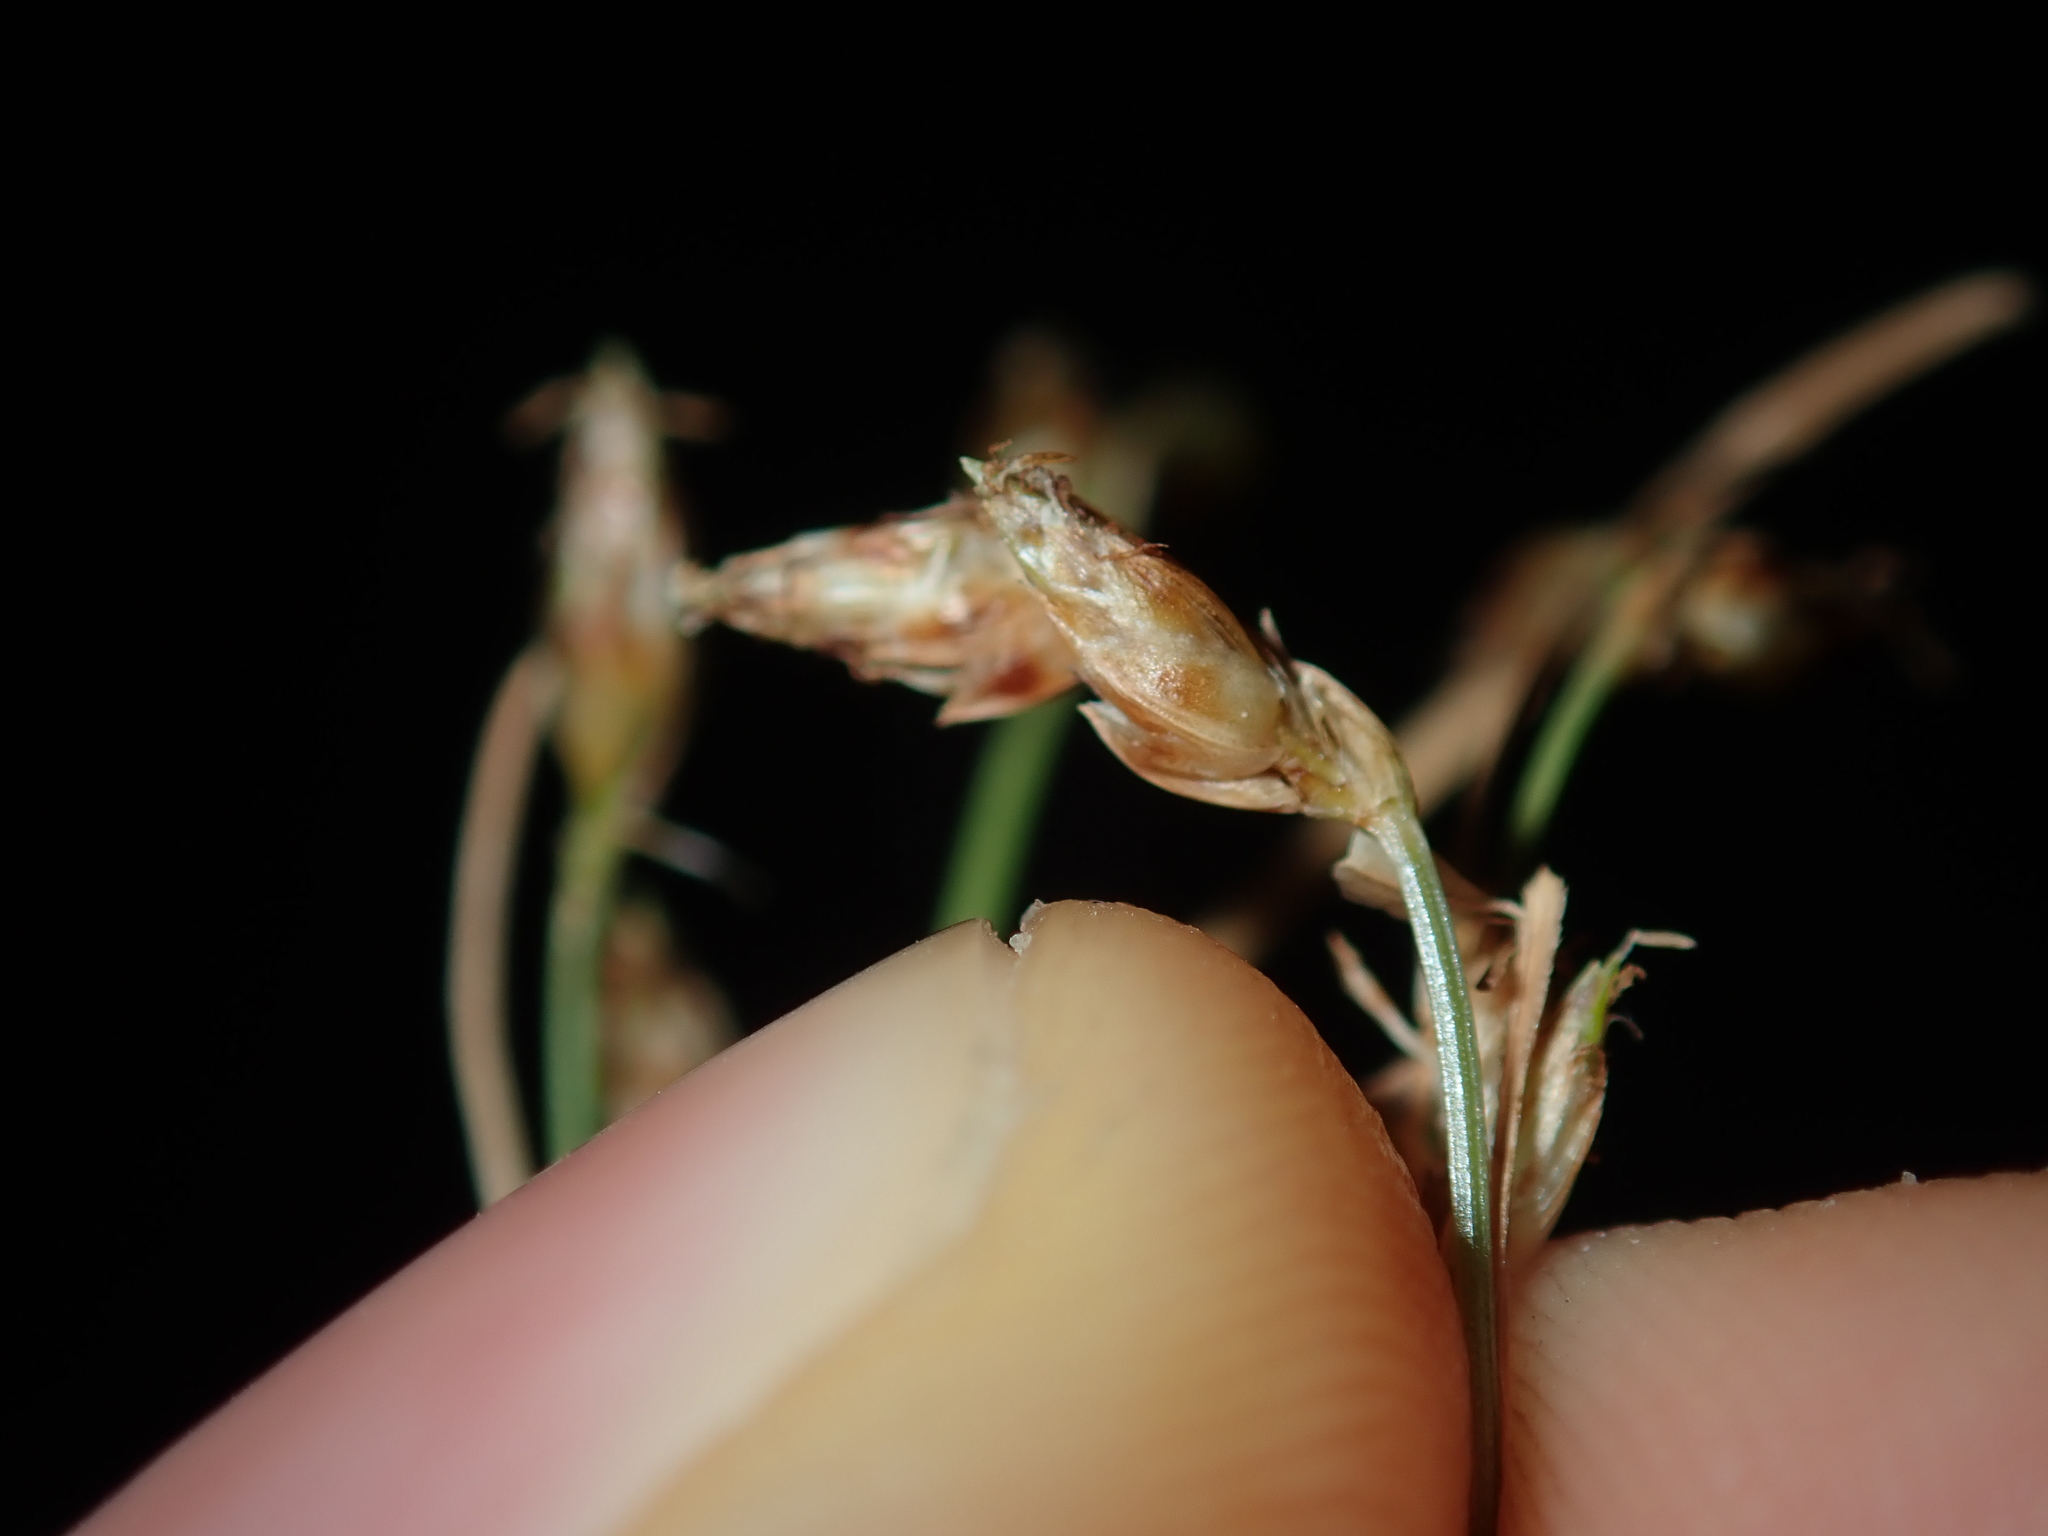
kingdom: Plantae
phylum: Tracheophyta
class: Liliopsida
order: Poales
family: Cyperaceae
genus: Fimbristylis
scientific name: Fimbristylis dichotoma
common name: Forked fimbry
